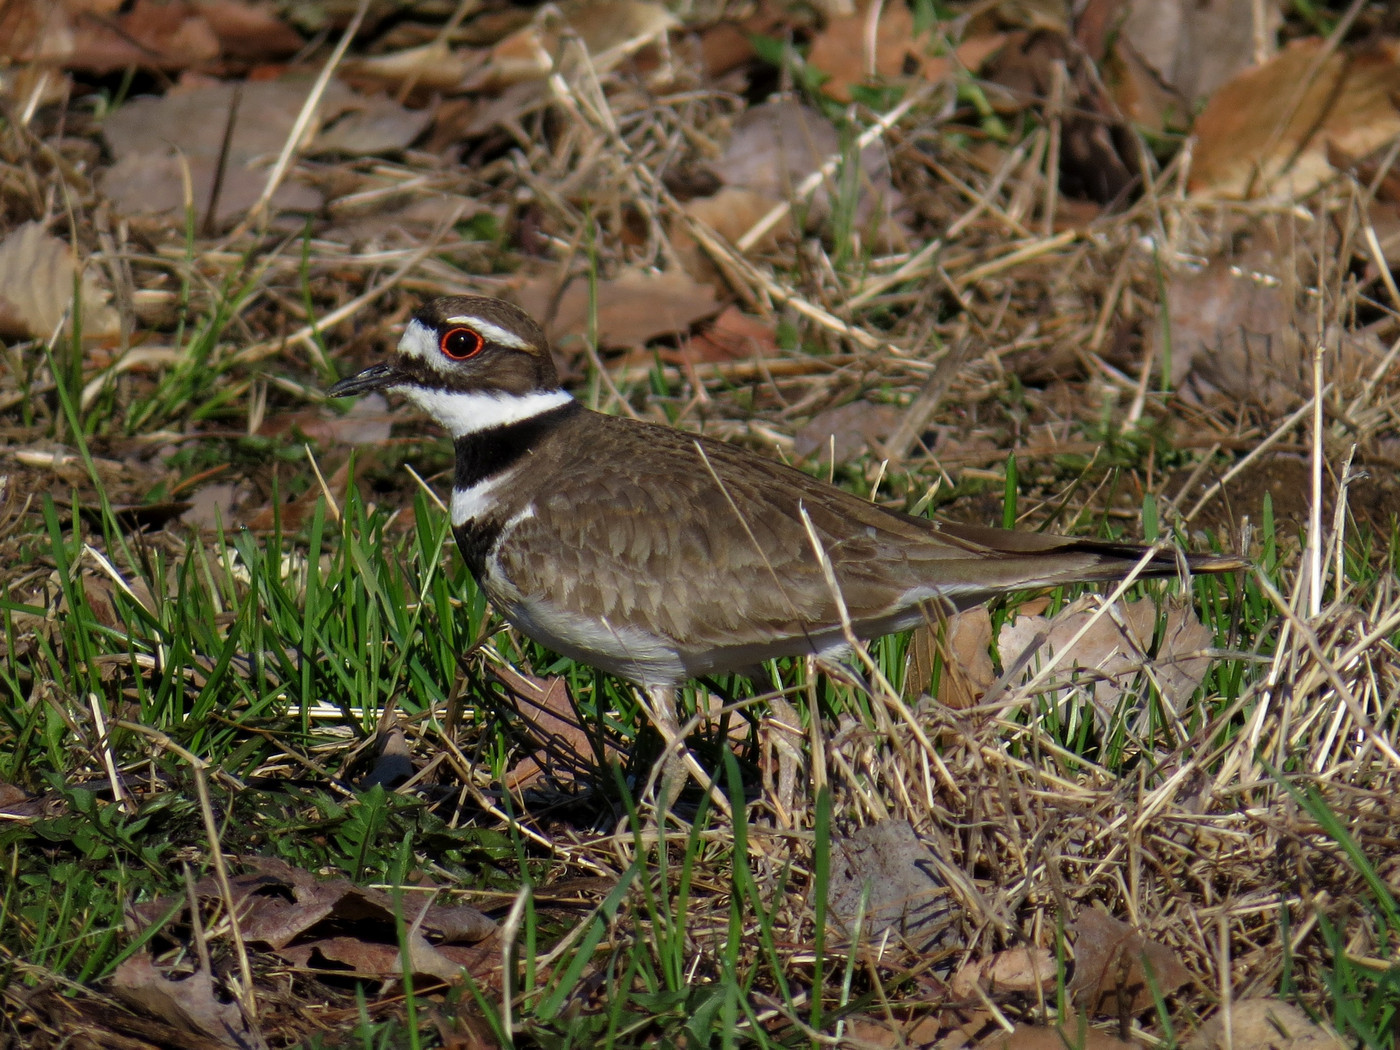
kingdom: Animalia
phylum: Chordata
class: Aves
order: Charadriiformes
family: Charadriidae
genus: Charadrius
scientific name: Charadrius vociferus
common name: Killdeer
